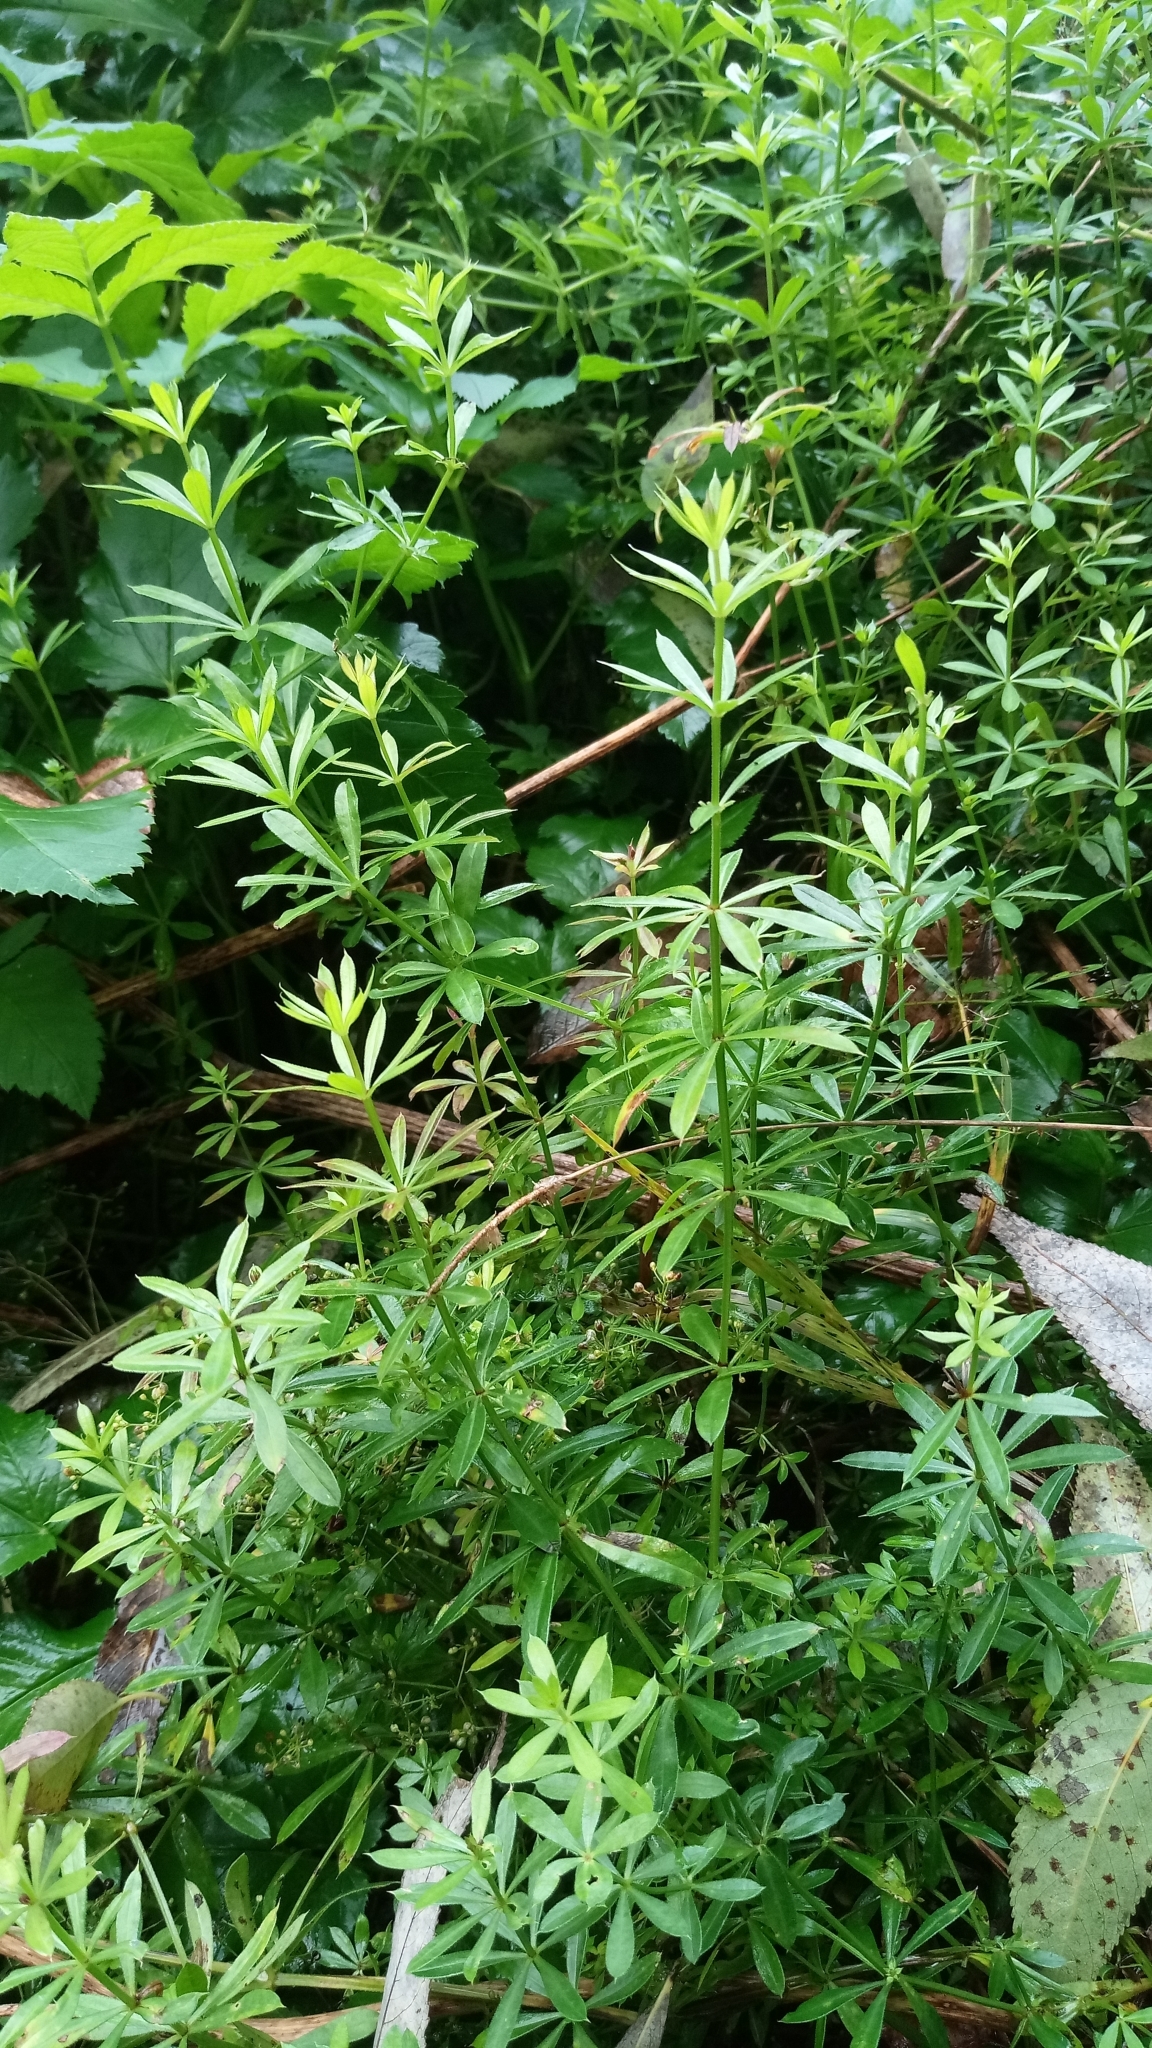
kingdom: Plantae
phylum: Tracheophyta
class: Magnoliopsida
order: Gentianales
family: Rubiaceae
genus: Galium
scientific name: Galium rivale
